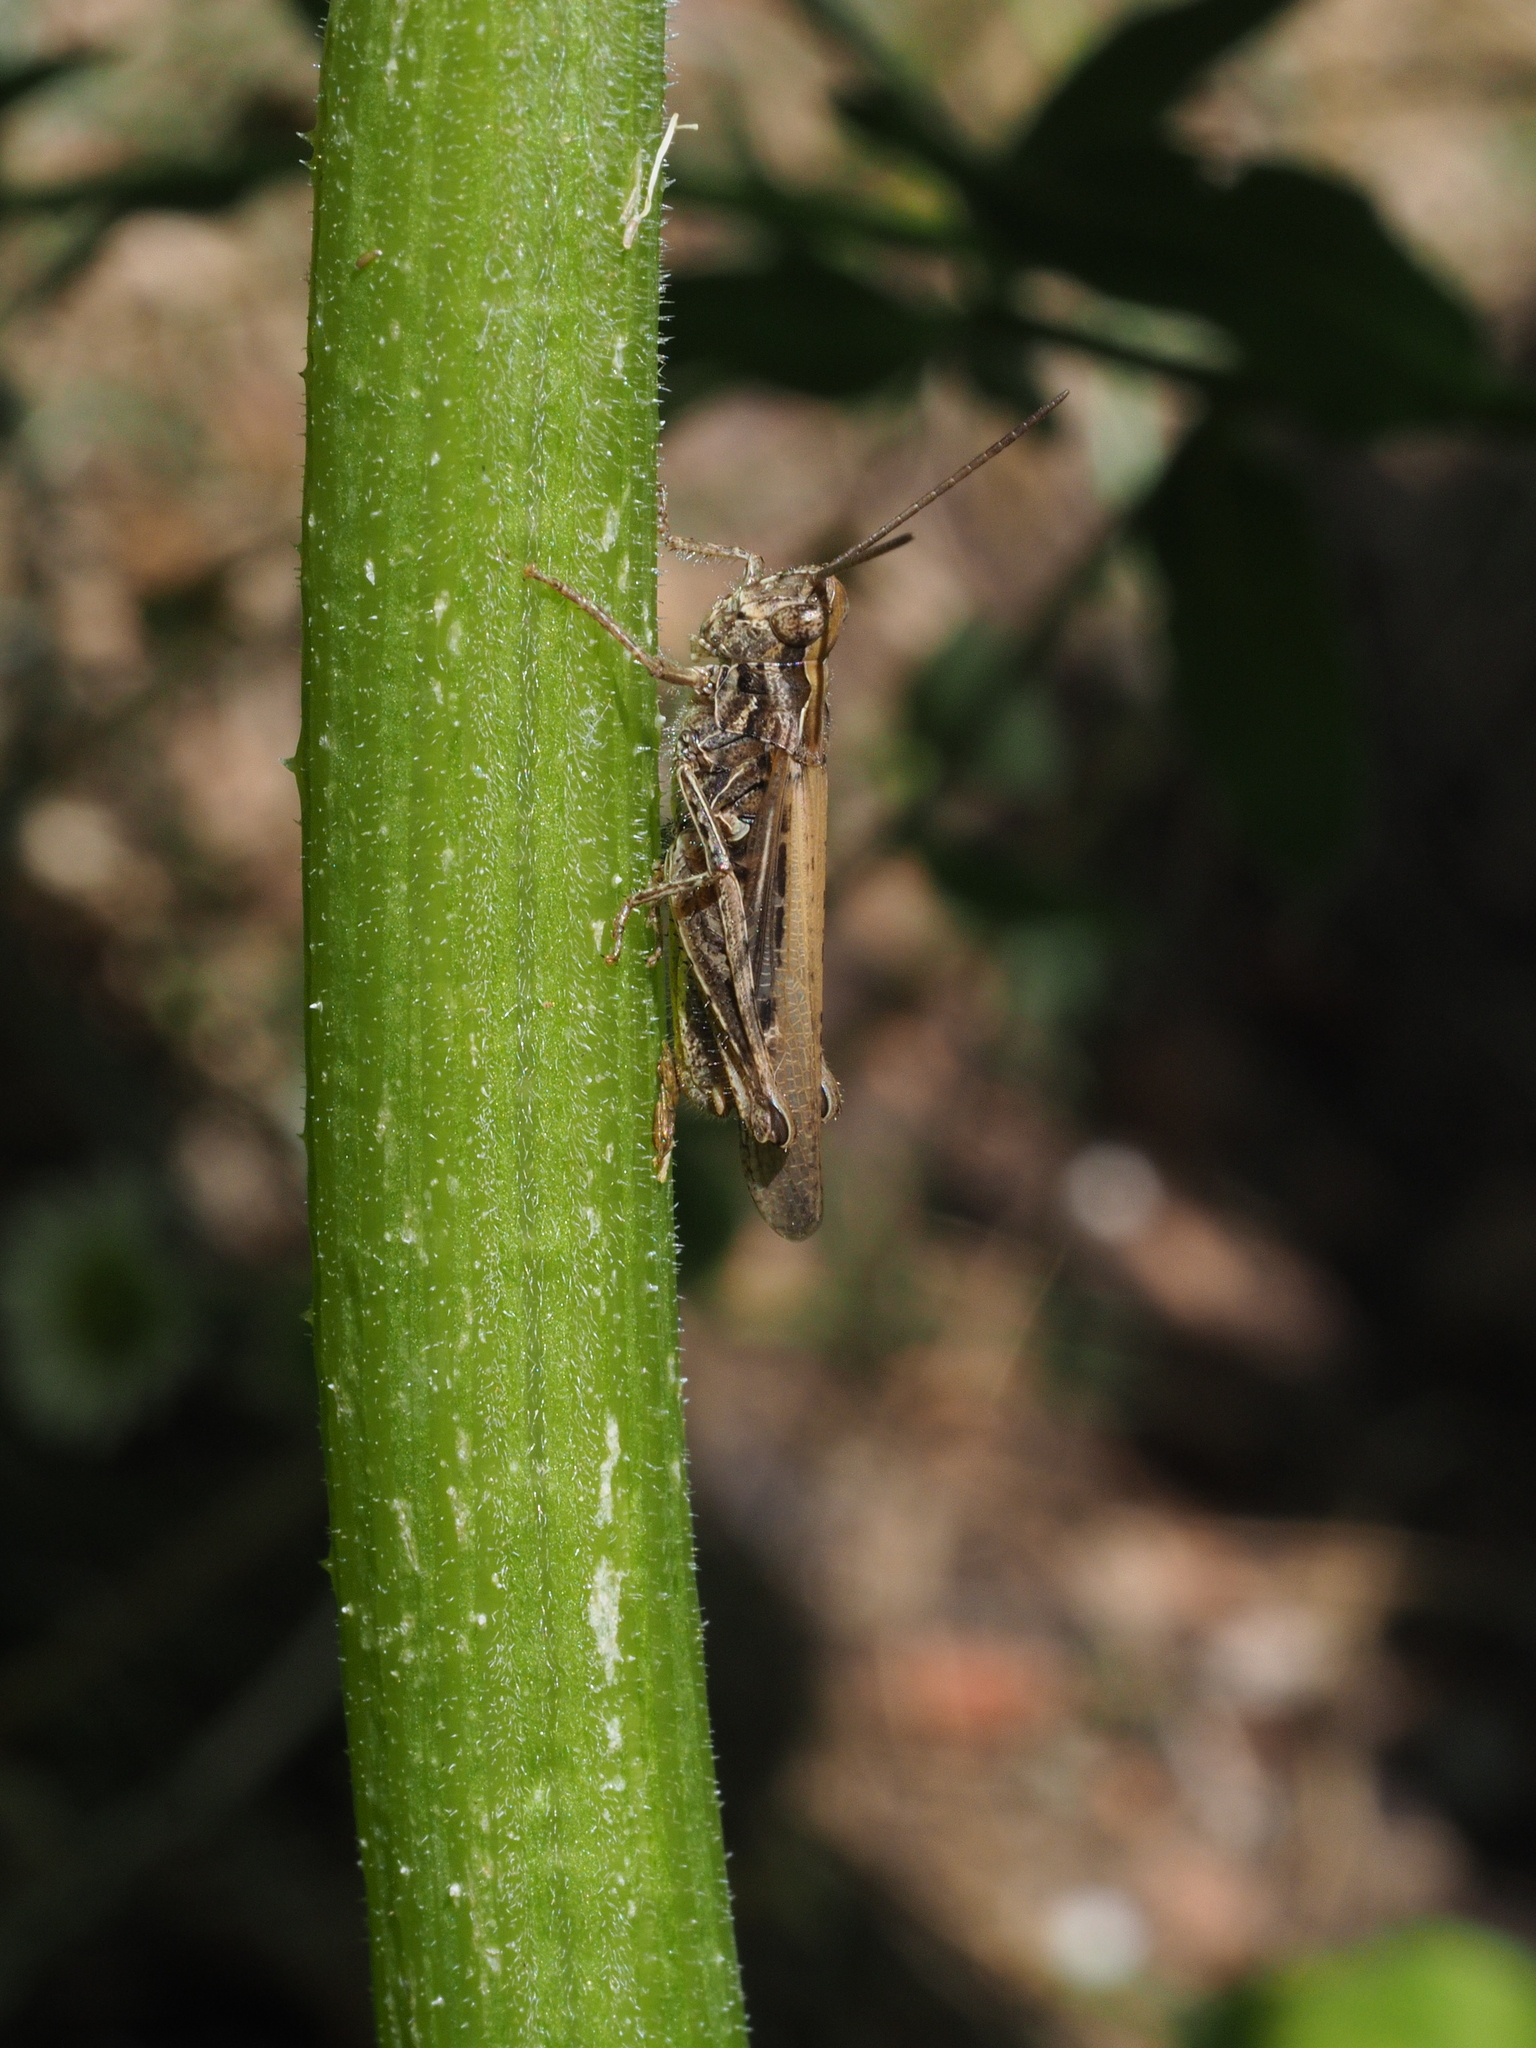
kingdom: Animalia
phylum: Arthropoda
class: Insecta
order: Orthoptera
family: Acrididae
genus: Chorthippus
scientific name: Chorthippus brunneus
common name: Field grasshopper
